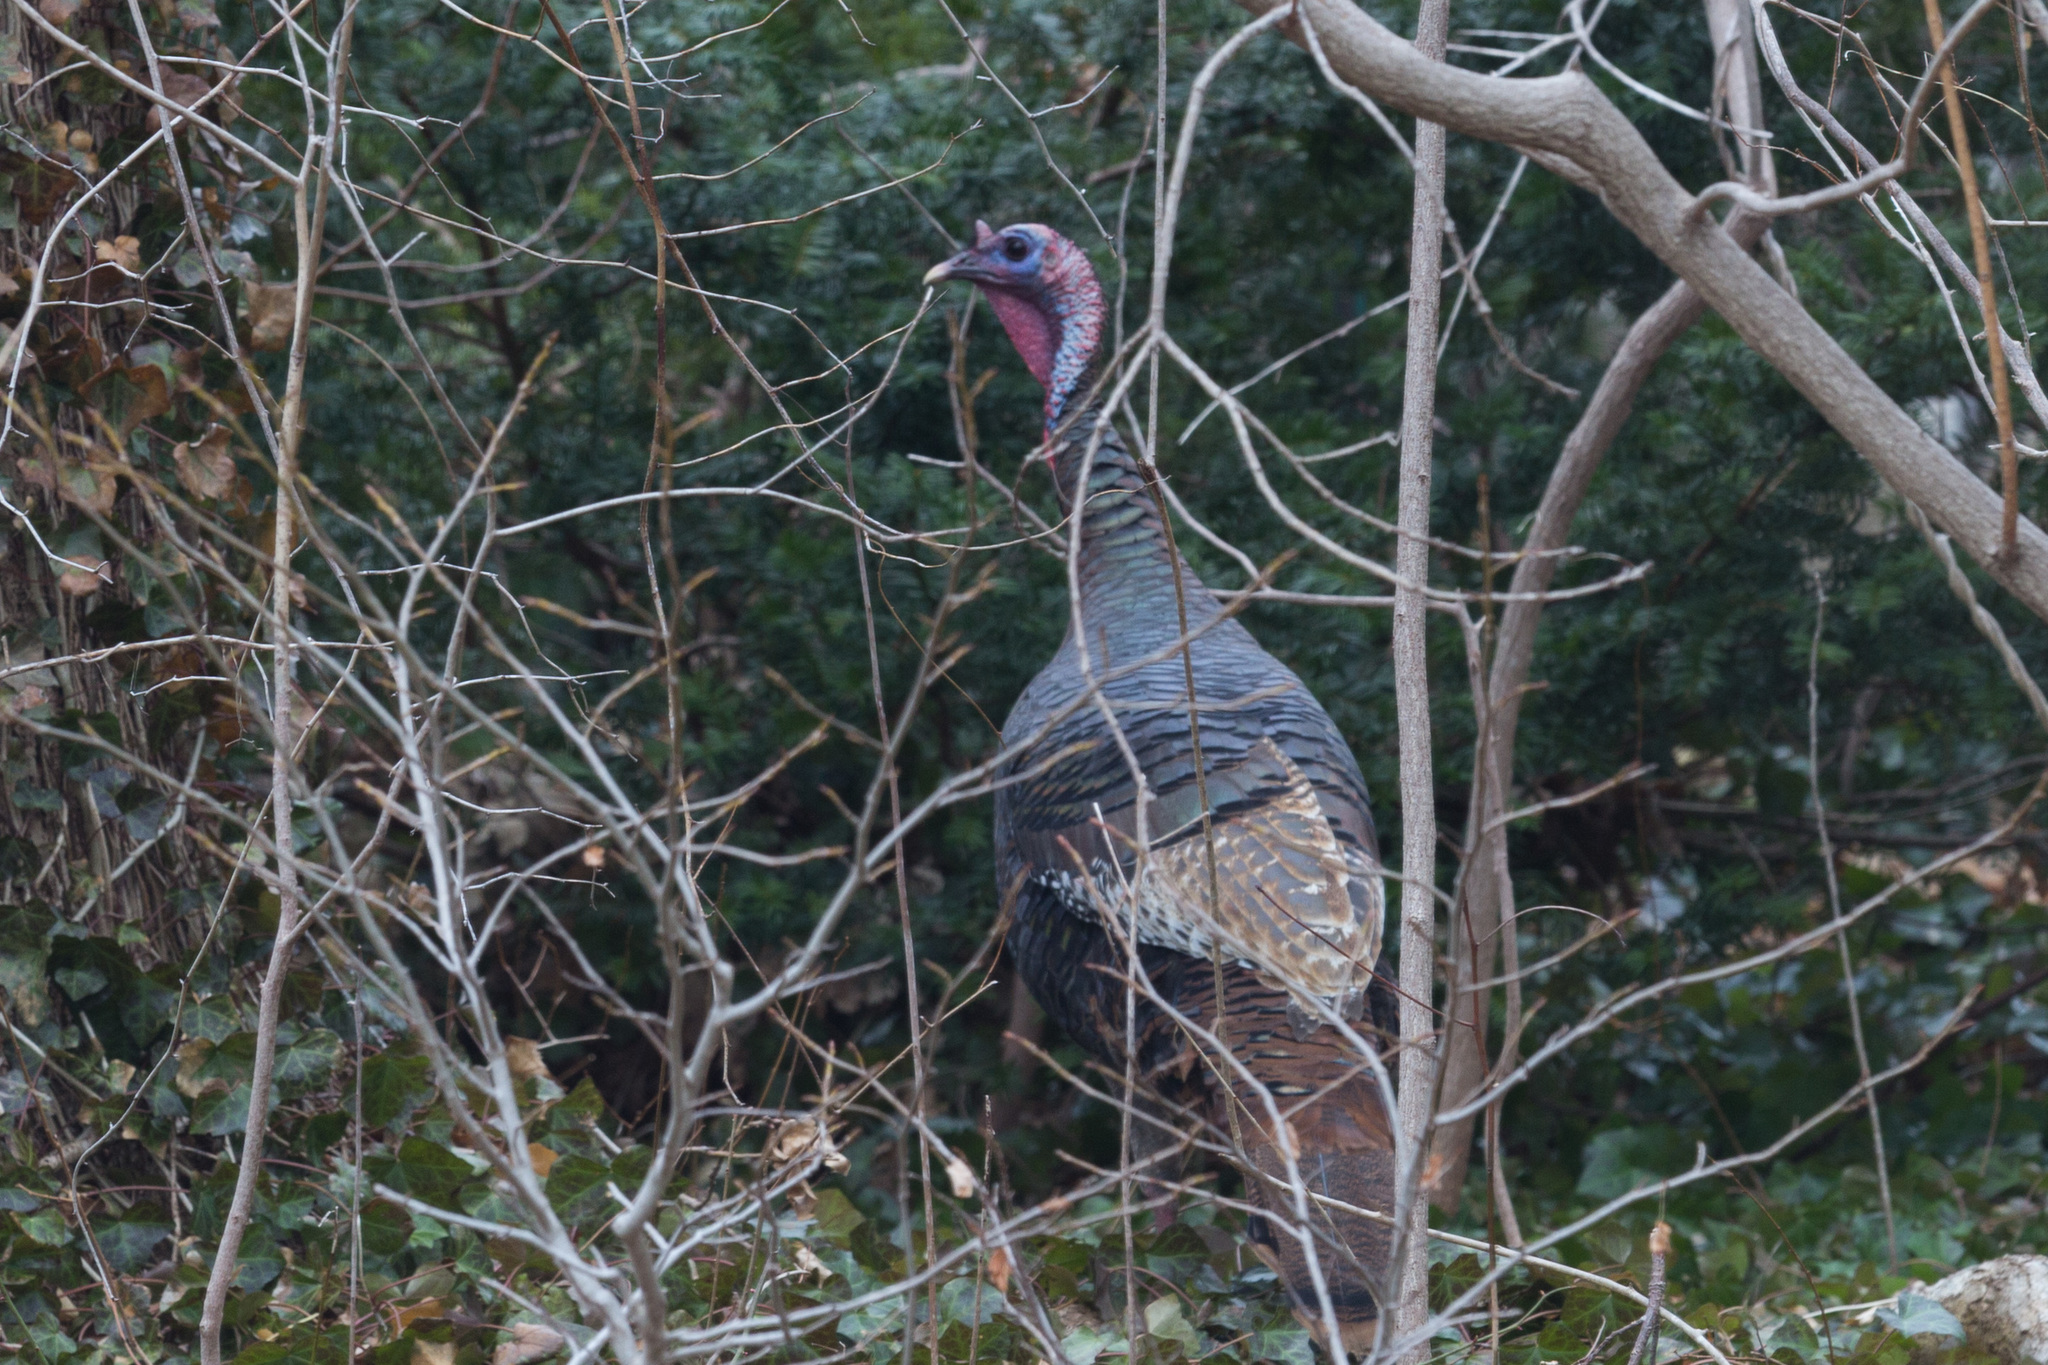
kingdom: Animalia
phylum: Chordata
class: Aves
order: Galliformes
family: Phasianidae
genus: Meleagris
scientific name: Meleagris gallopavo
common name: Wild turkey
